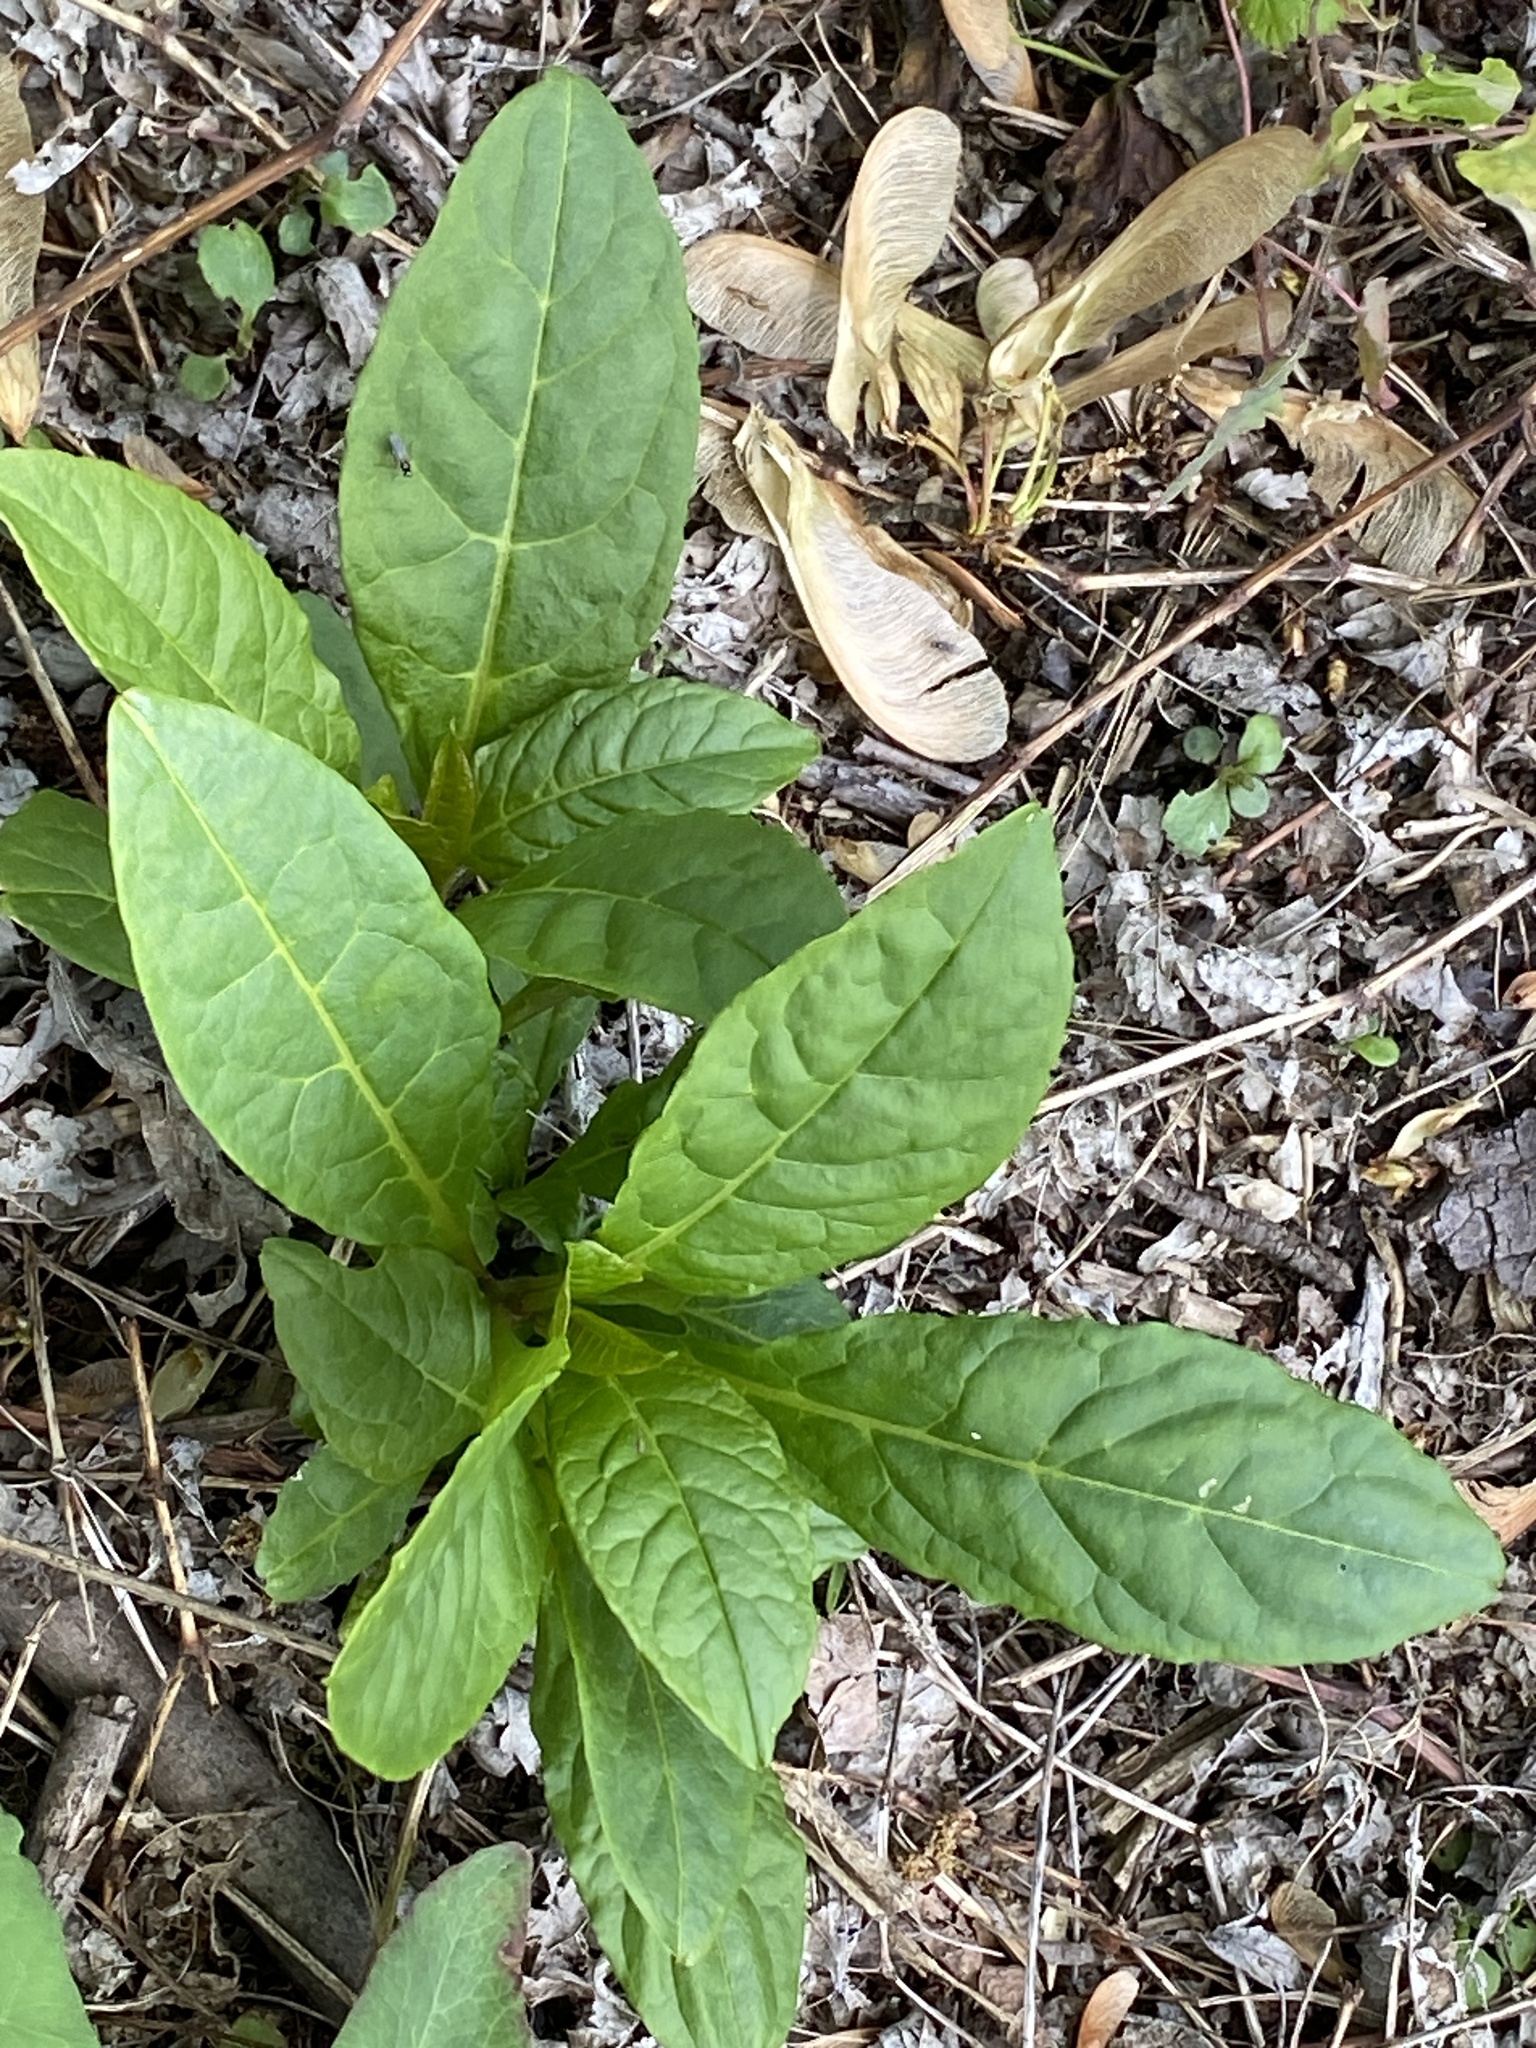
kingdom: Plantae
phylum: Tracheophyta
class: Magnoliopsida
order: Caryophyllales
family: Phytolaccaceae
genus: Phytolacca
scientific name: Phytolacca americana
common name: American pokeweed
